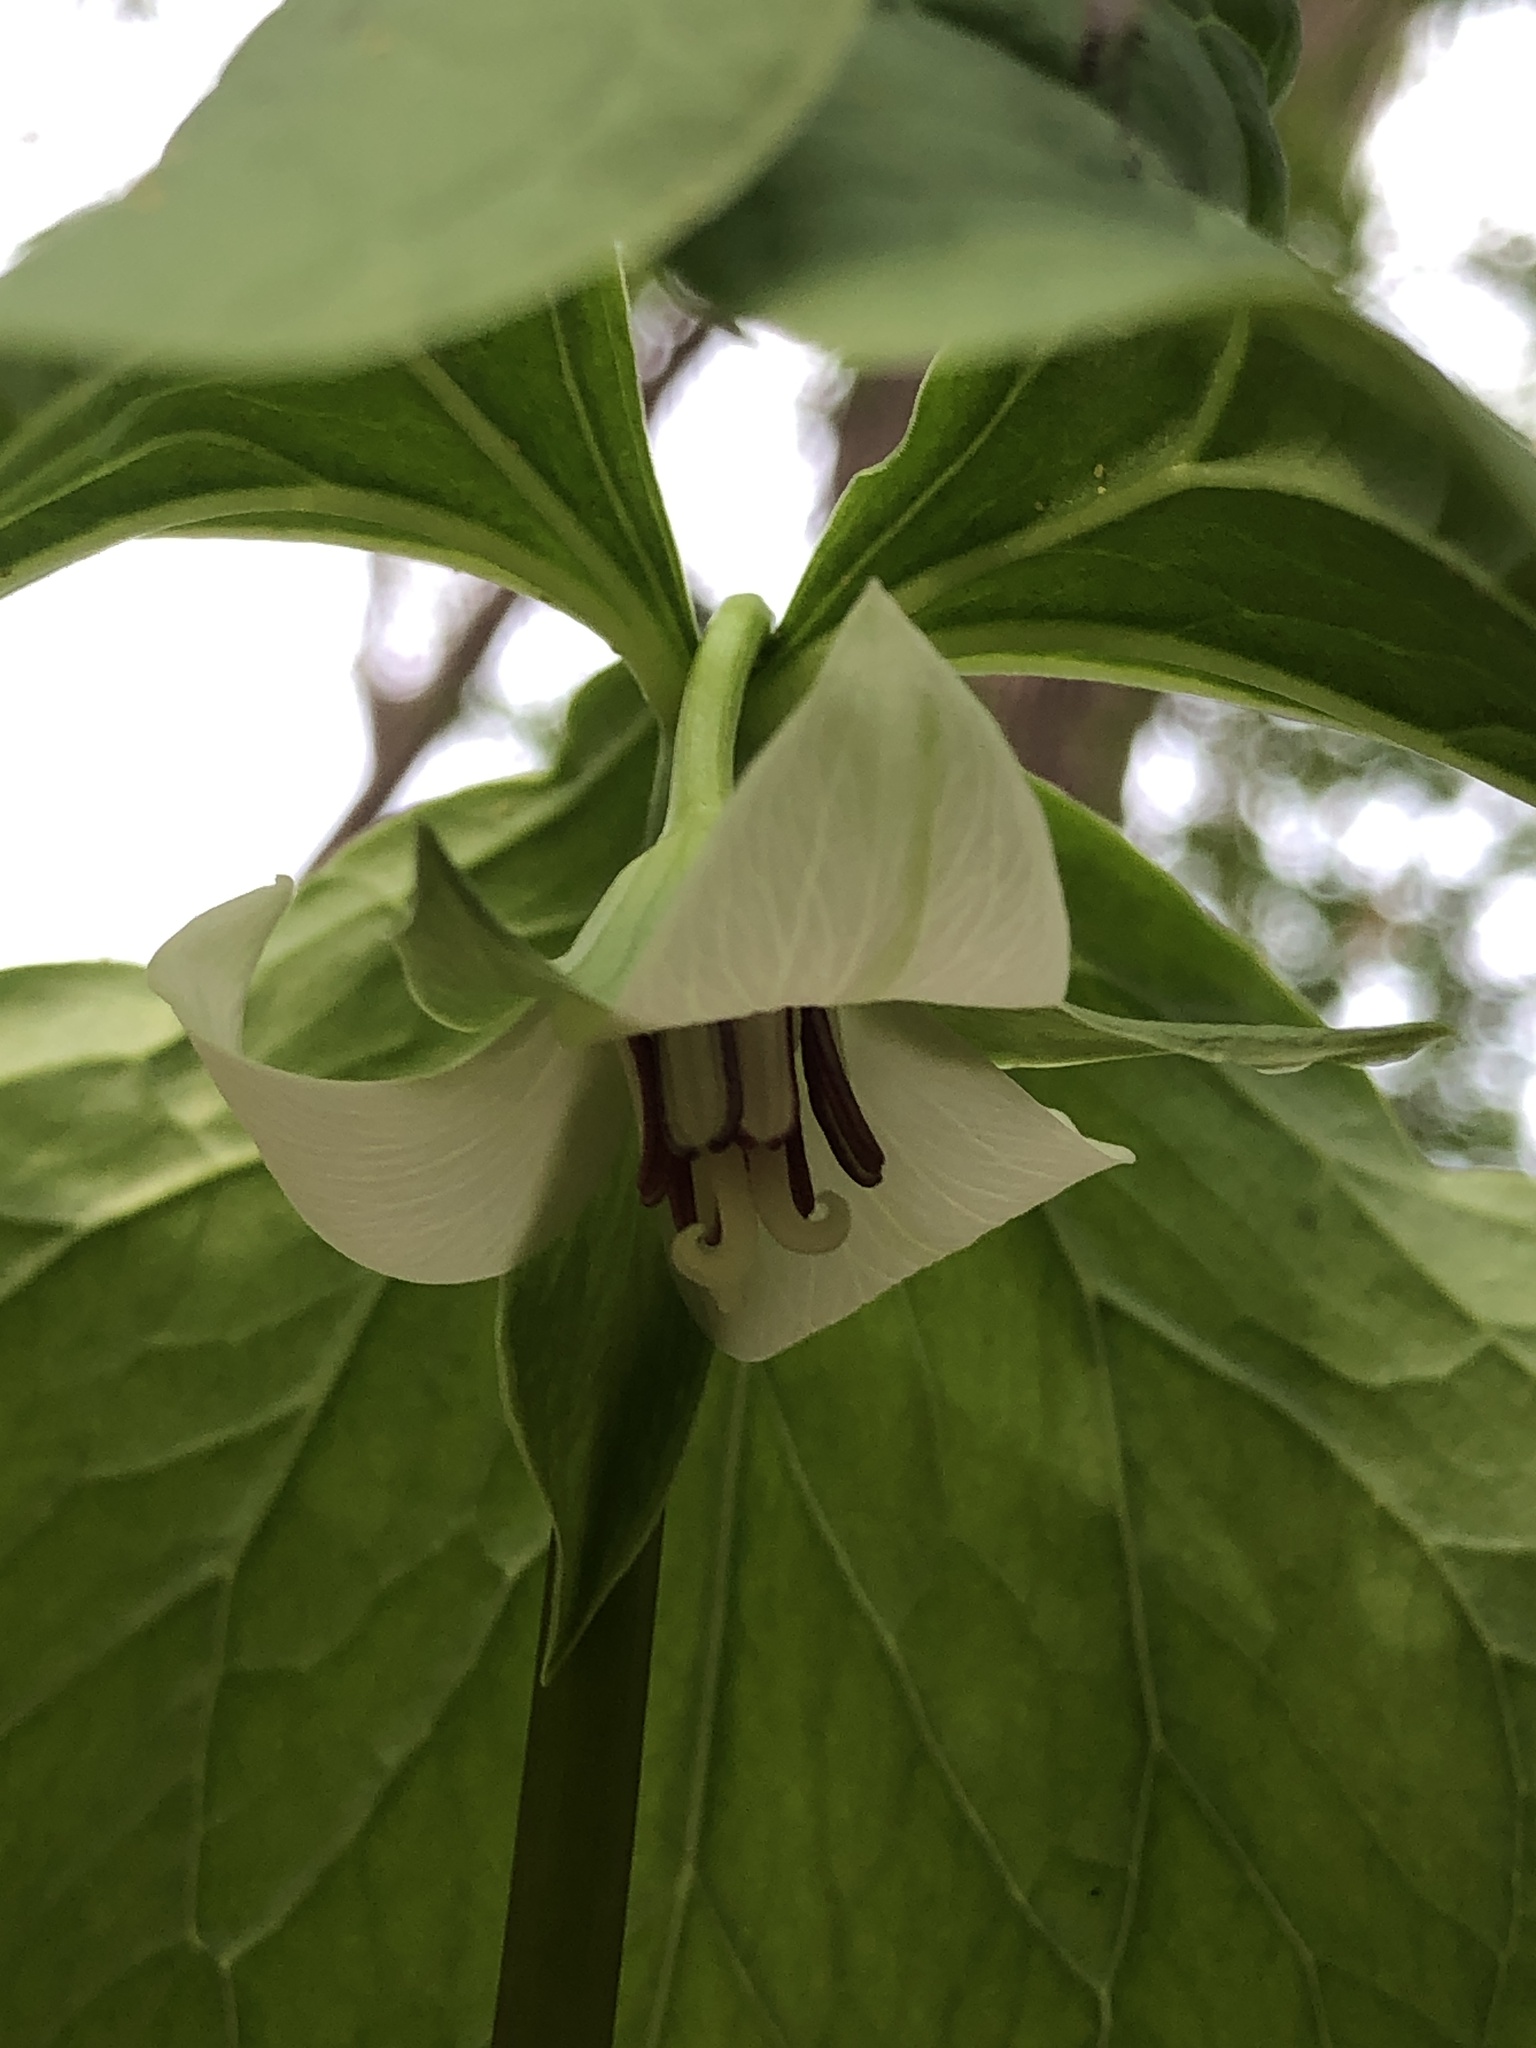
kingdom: Plantae
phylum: Tracheophyta
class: Liliopsida
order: Liliales
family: Melanthiaceae
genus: Trillium
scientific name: Trillium cernuum
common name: Nodding trillium
